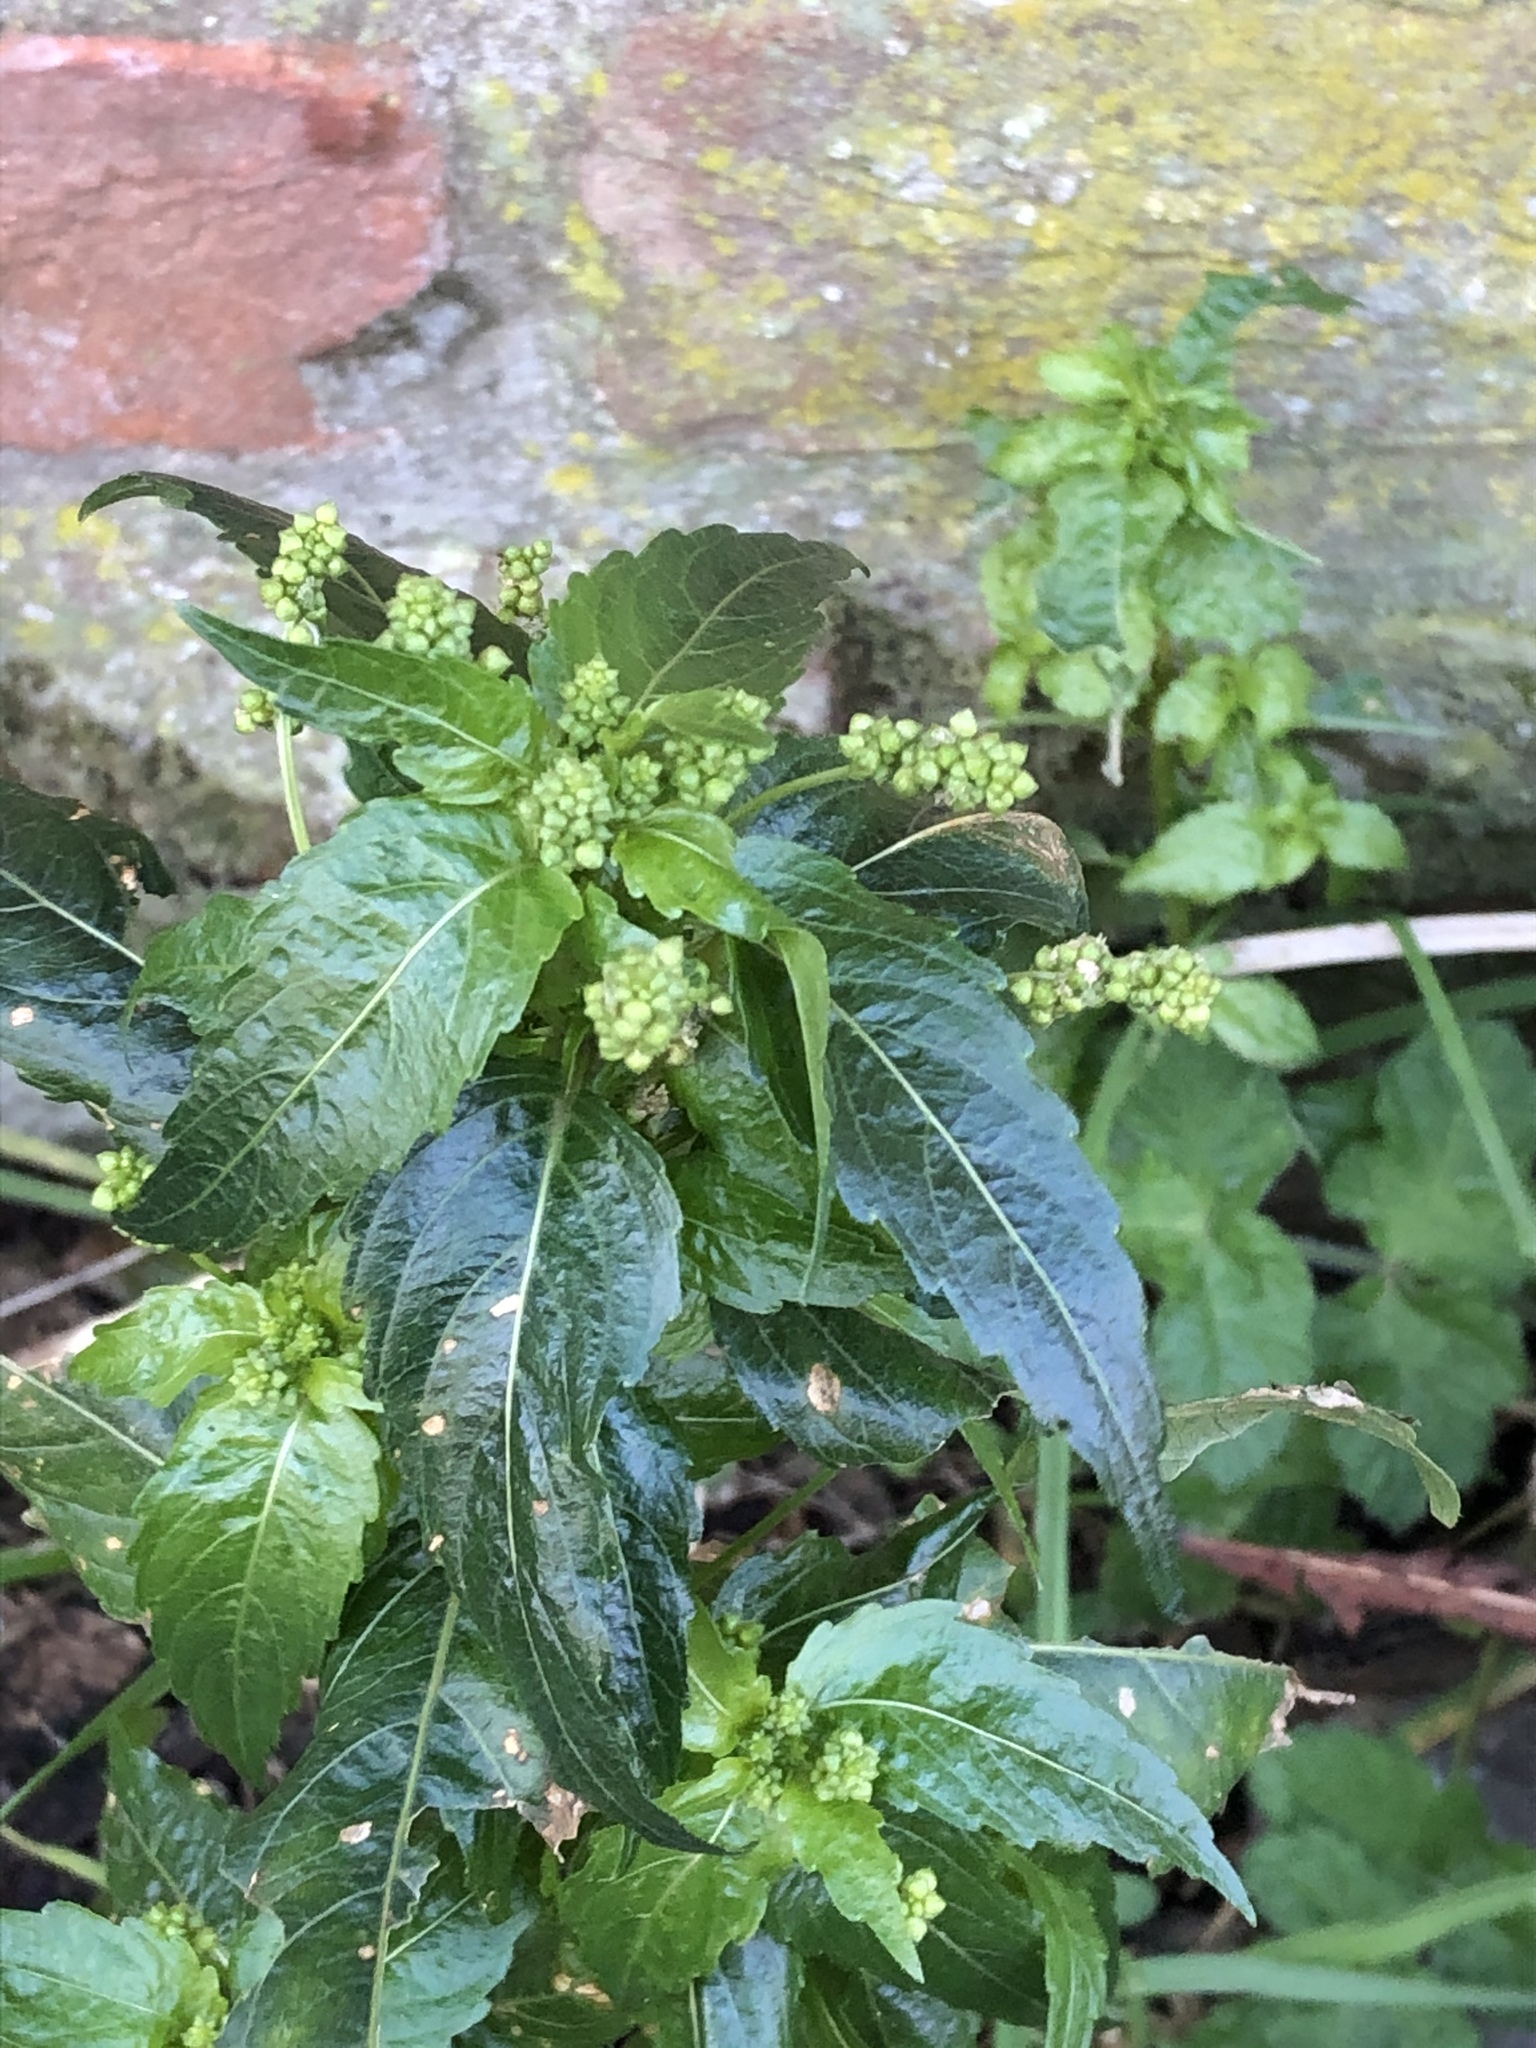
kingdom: Plantae
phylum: Tracheophyta
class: Magnoliopsida
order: Malpighiales
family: Euphorbiaceae
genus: Mercurialis
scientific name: Mercurialis annua
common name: Annual mercury
